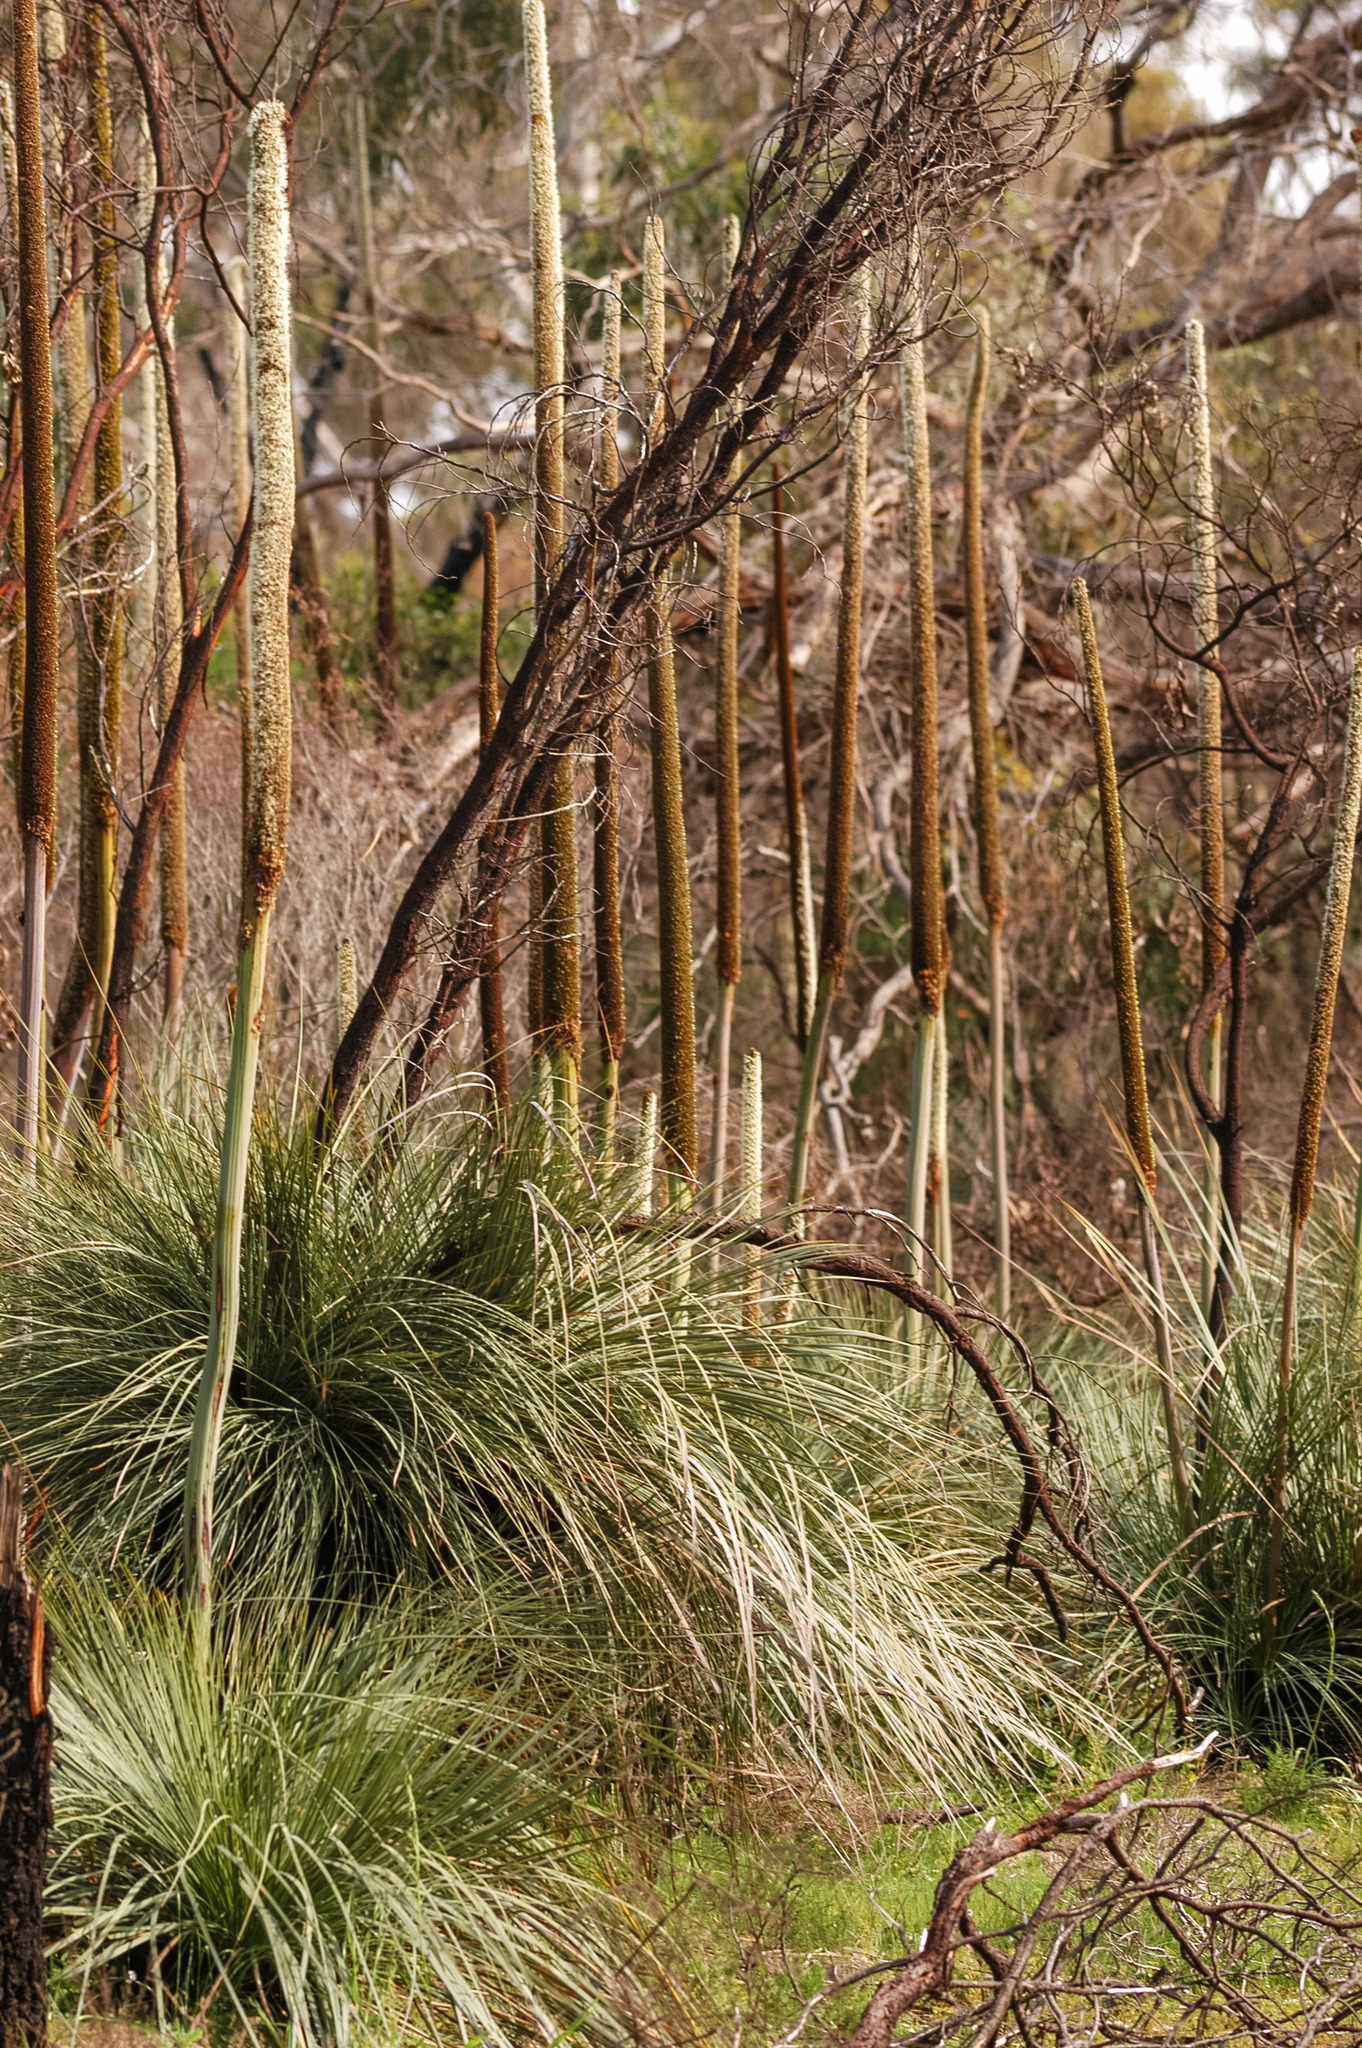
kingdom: Plantae
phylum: Tracheophyta
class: Liliopsida
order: Asparagales
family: Asphodelaceae
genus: Xanthorrhoea
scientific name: Xanthorrhoea semiplana
